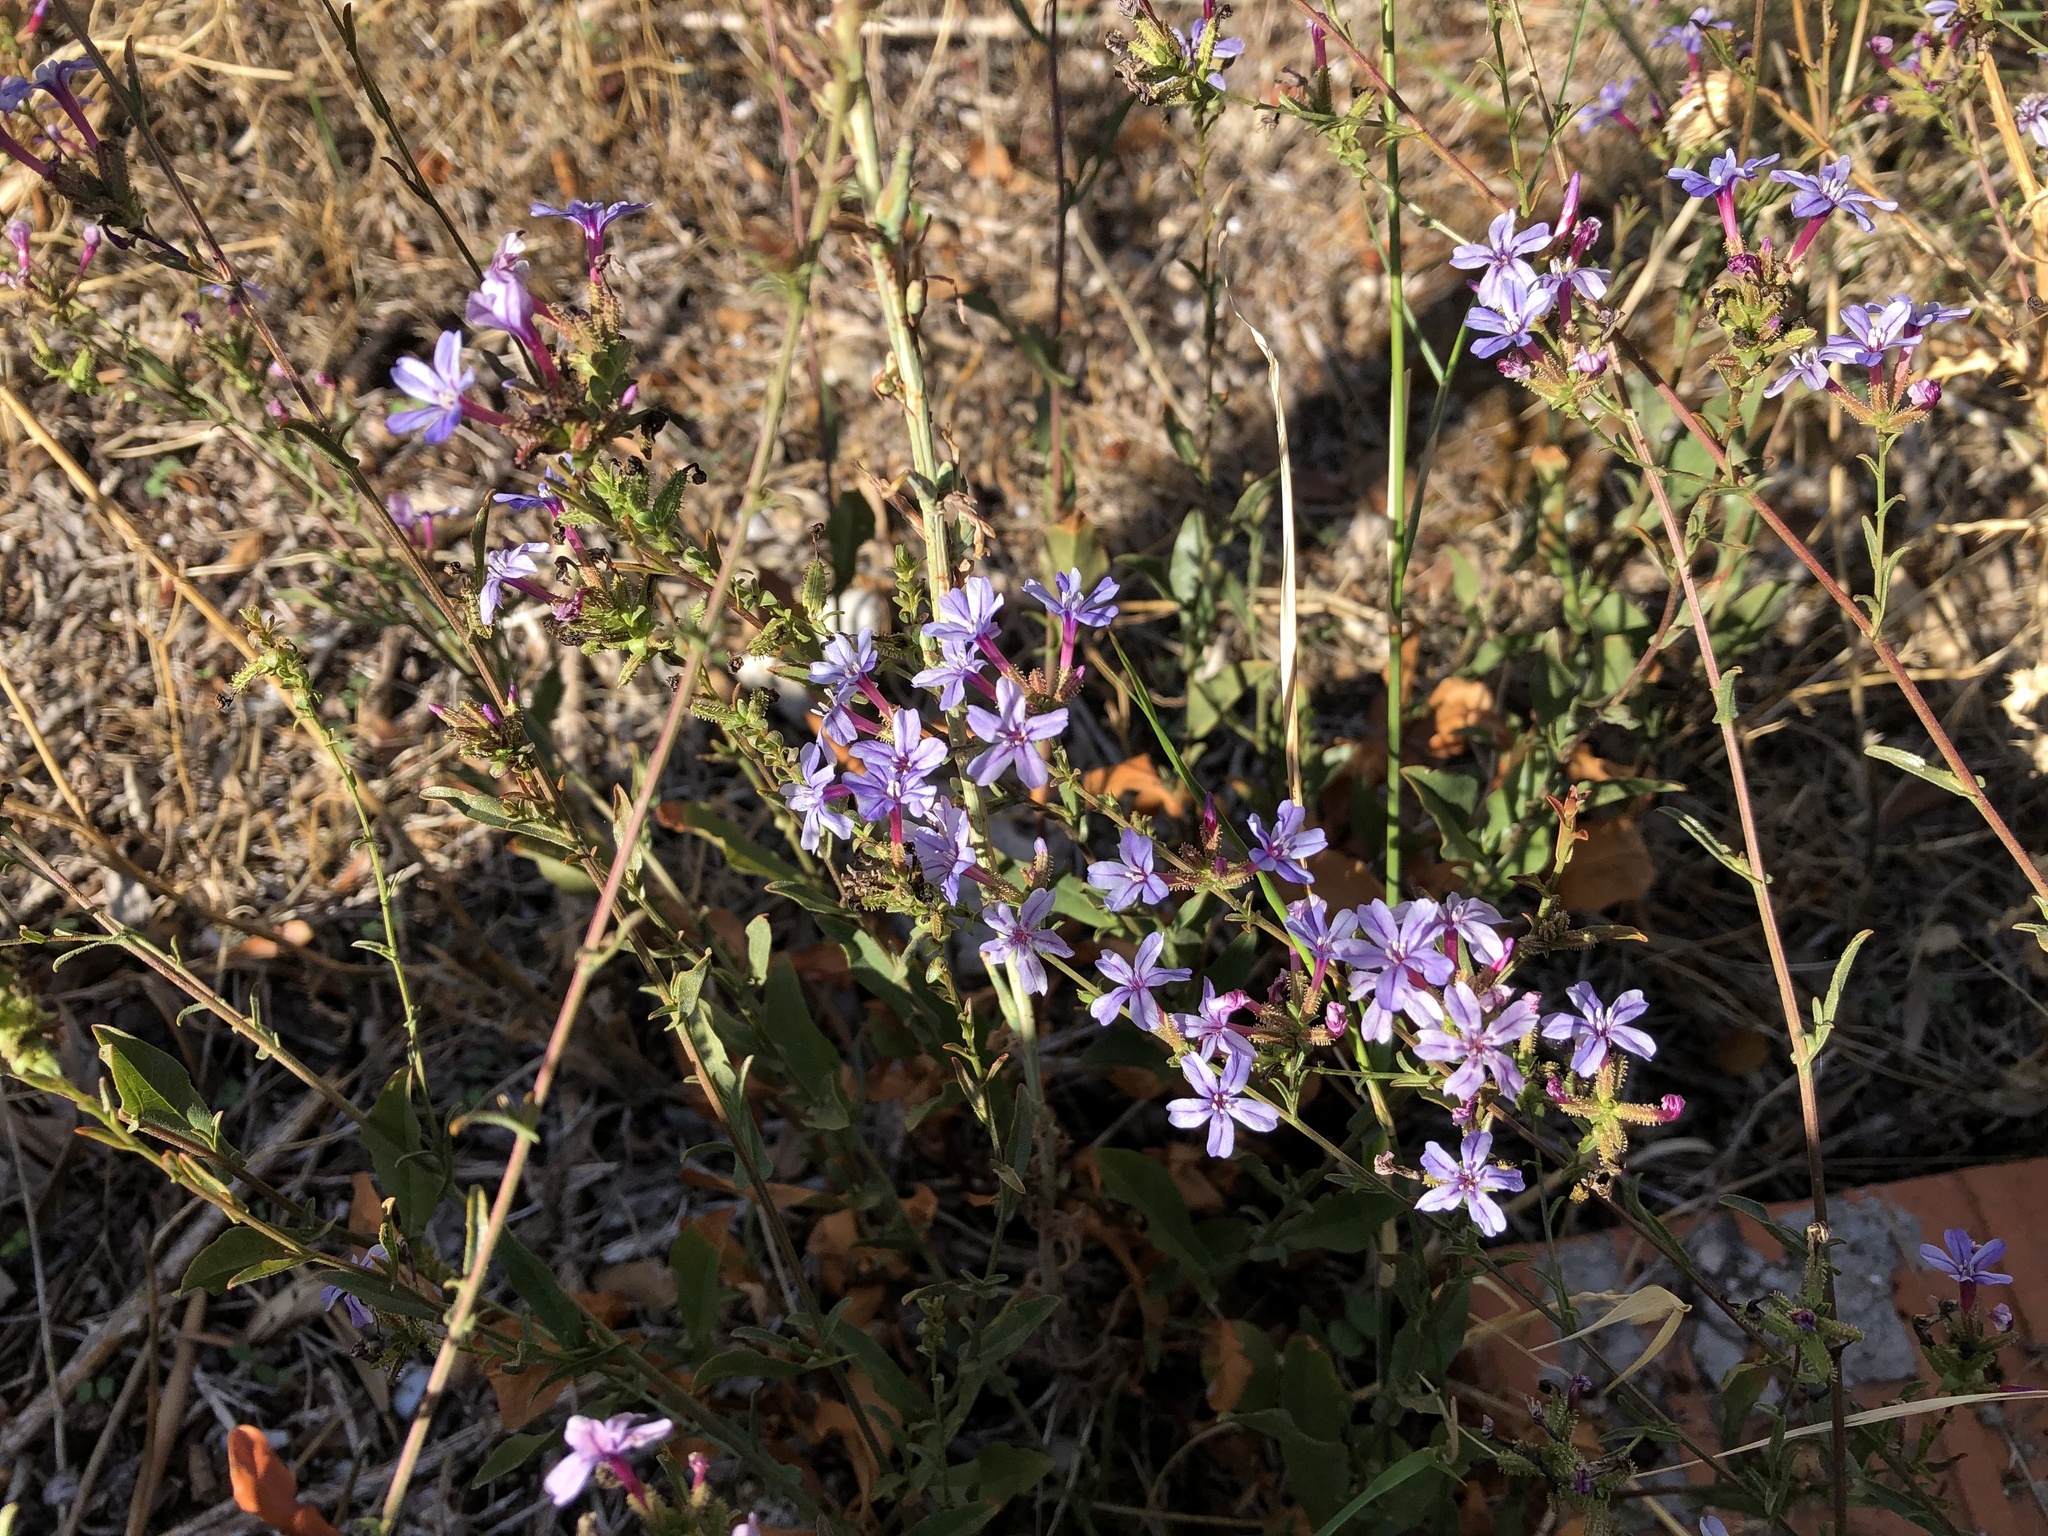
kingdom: Plantae
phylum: Tracheophyta
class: Magnoliopsida
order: Caryophyllales
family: Plumbaginaceae
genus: Plumbago
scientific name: Plumbago europaea
